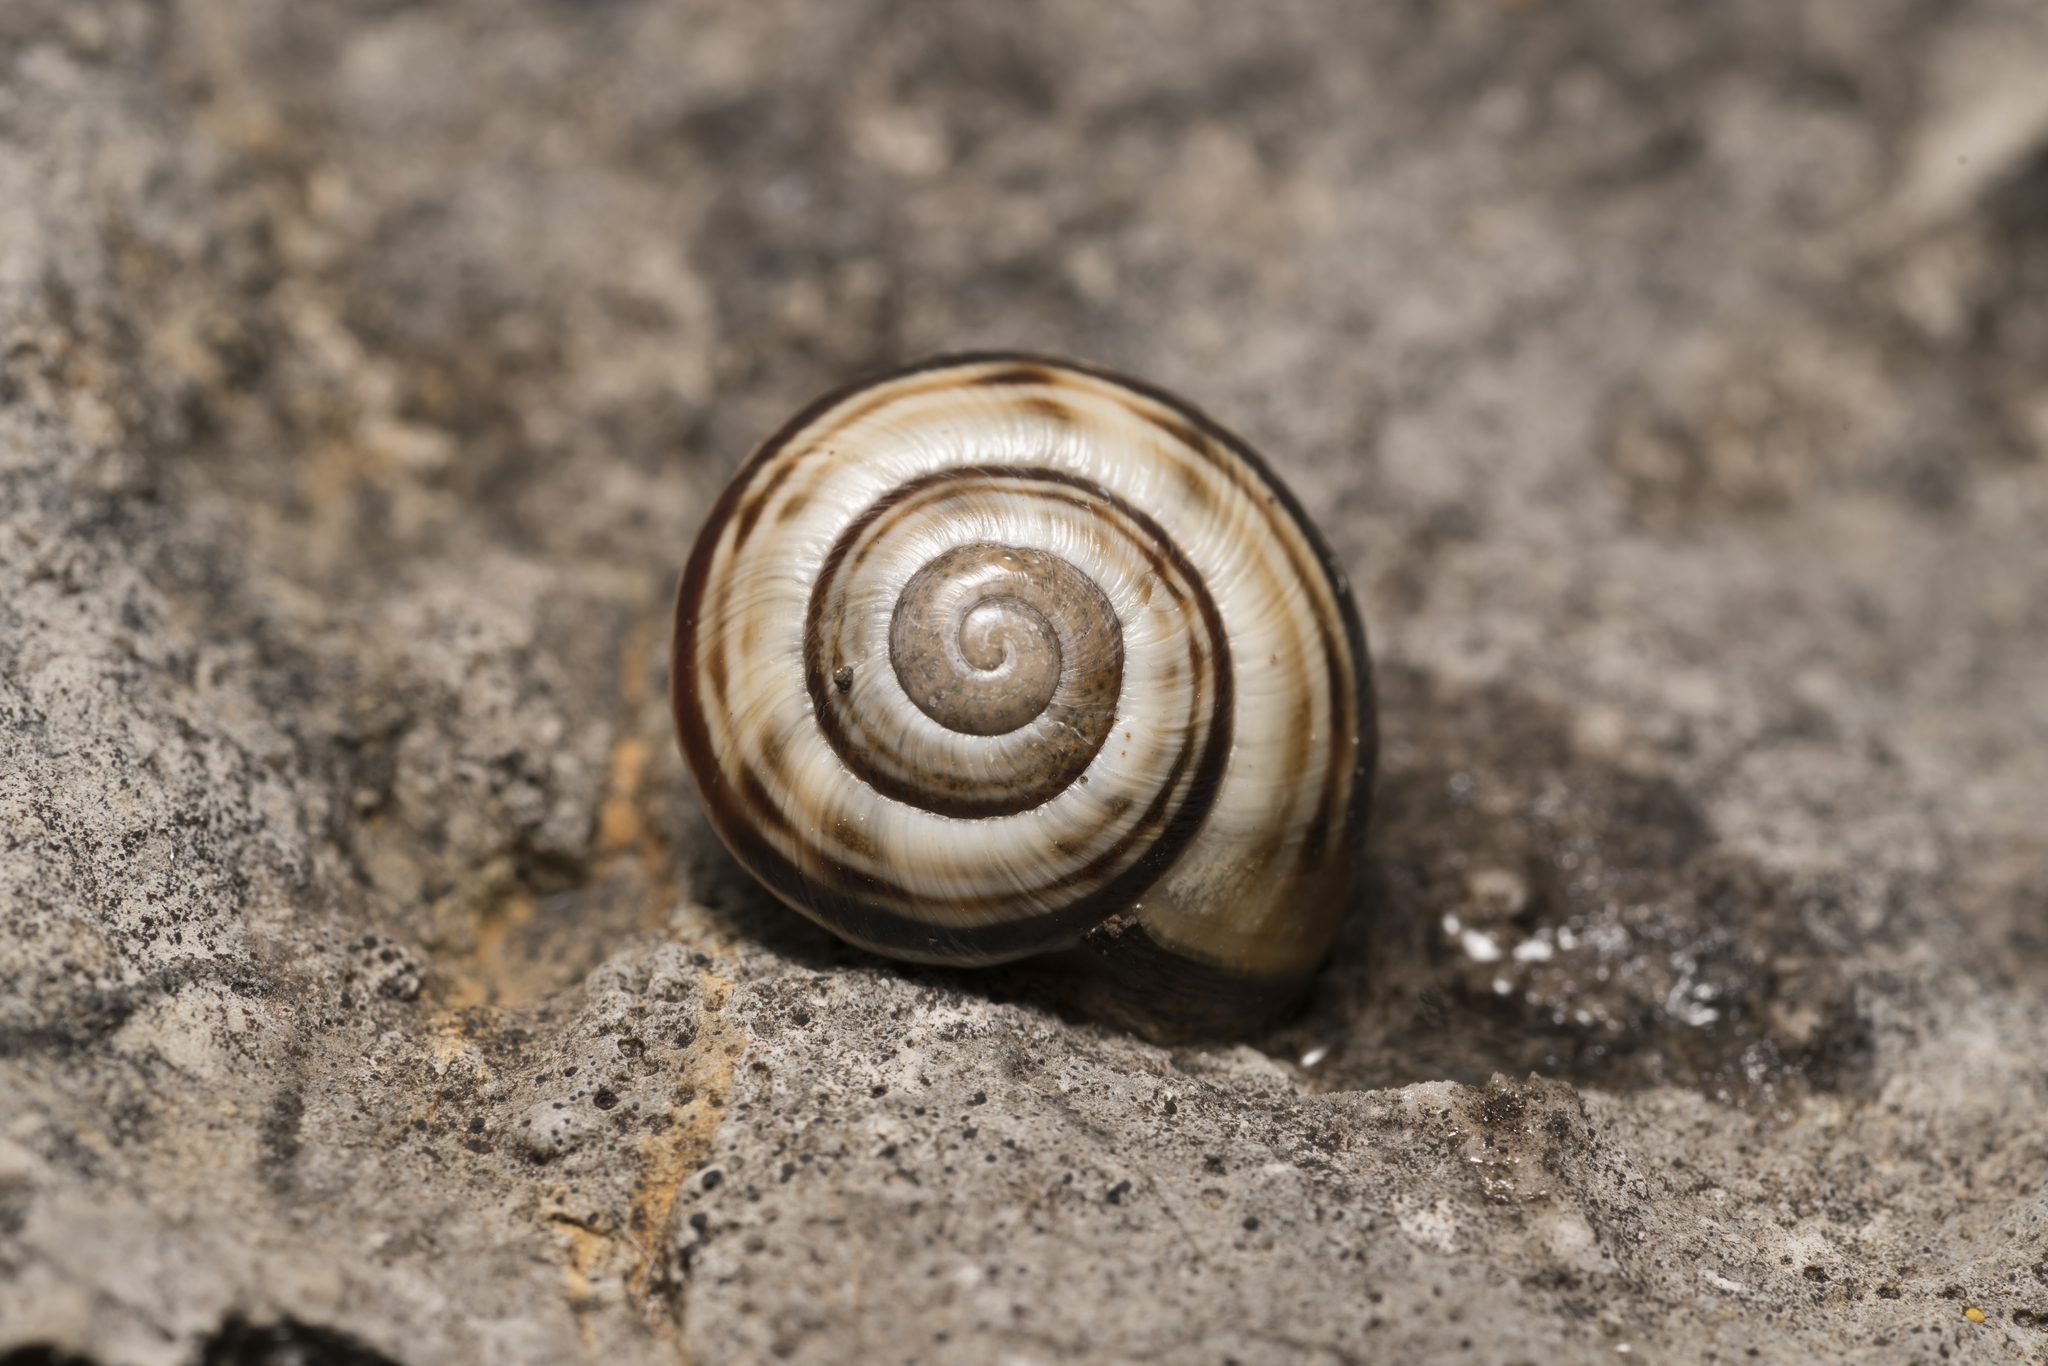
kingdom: Animalia
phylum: Mollusca
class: Gastropoda
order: Stylommatophora
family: Helicidae
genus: Macularia
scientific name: Macularia sylvatica
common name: Hélice sylvatique
